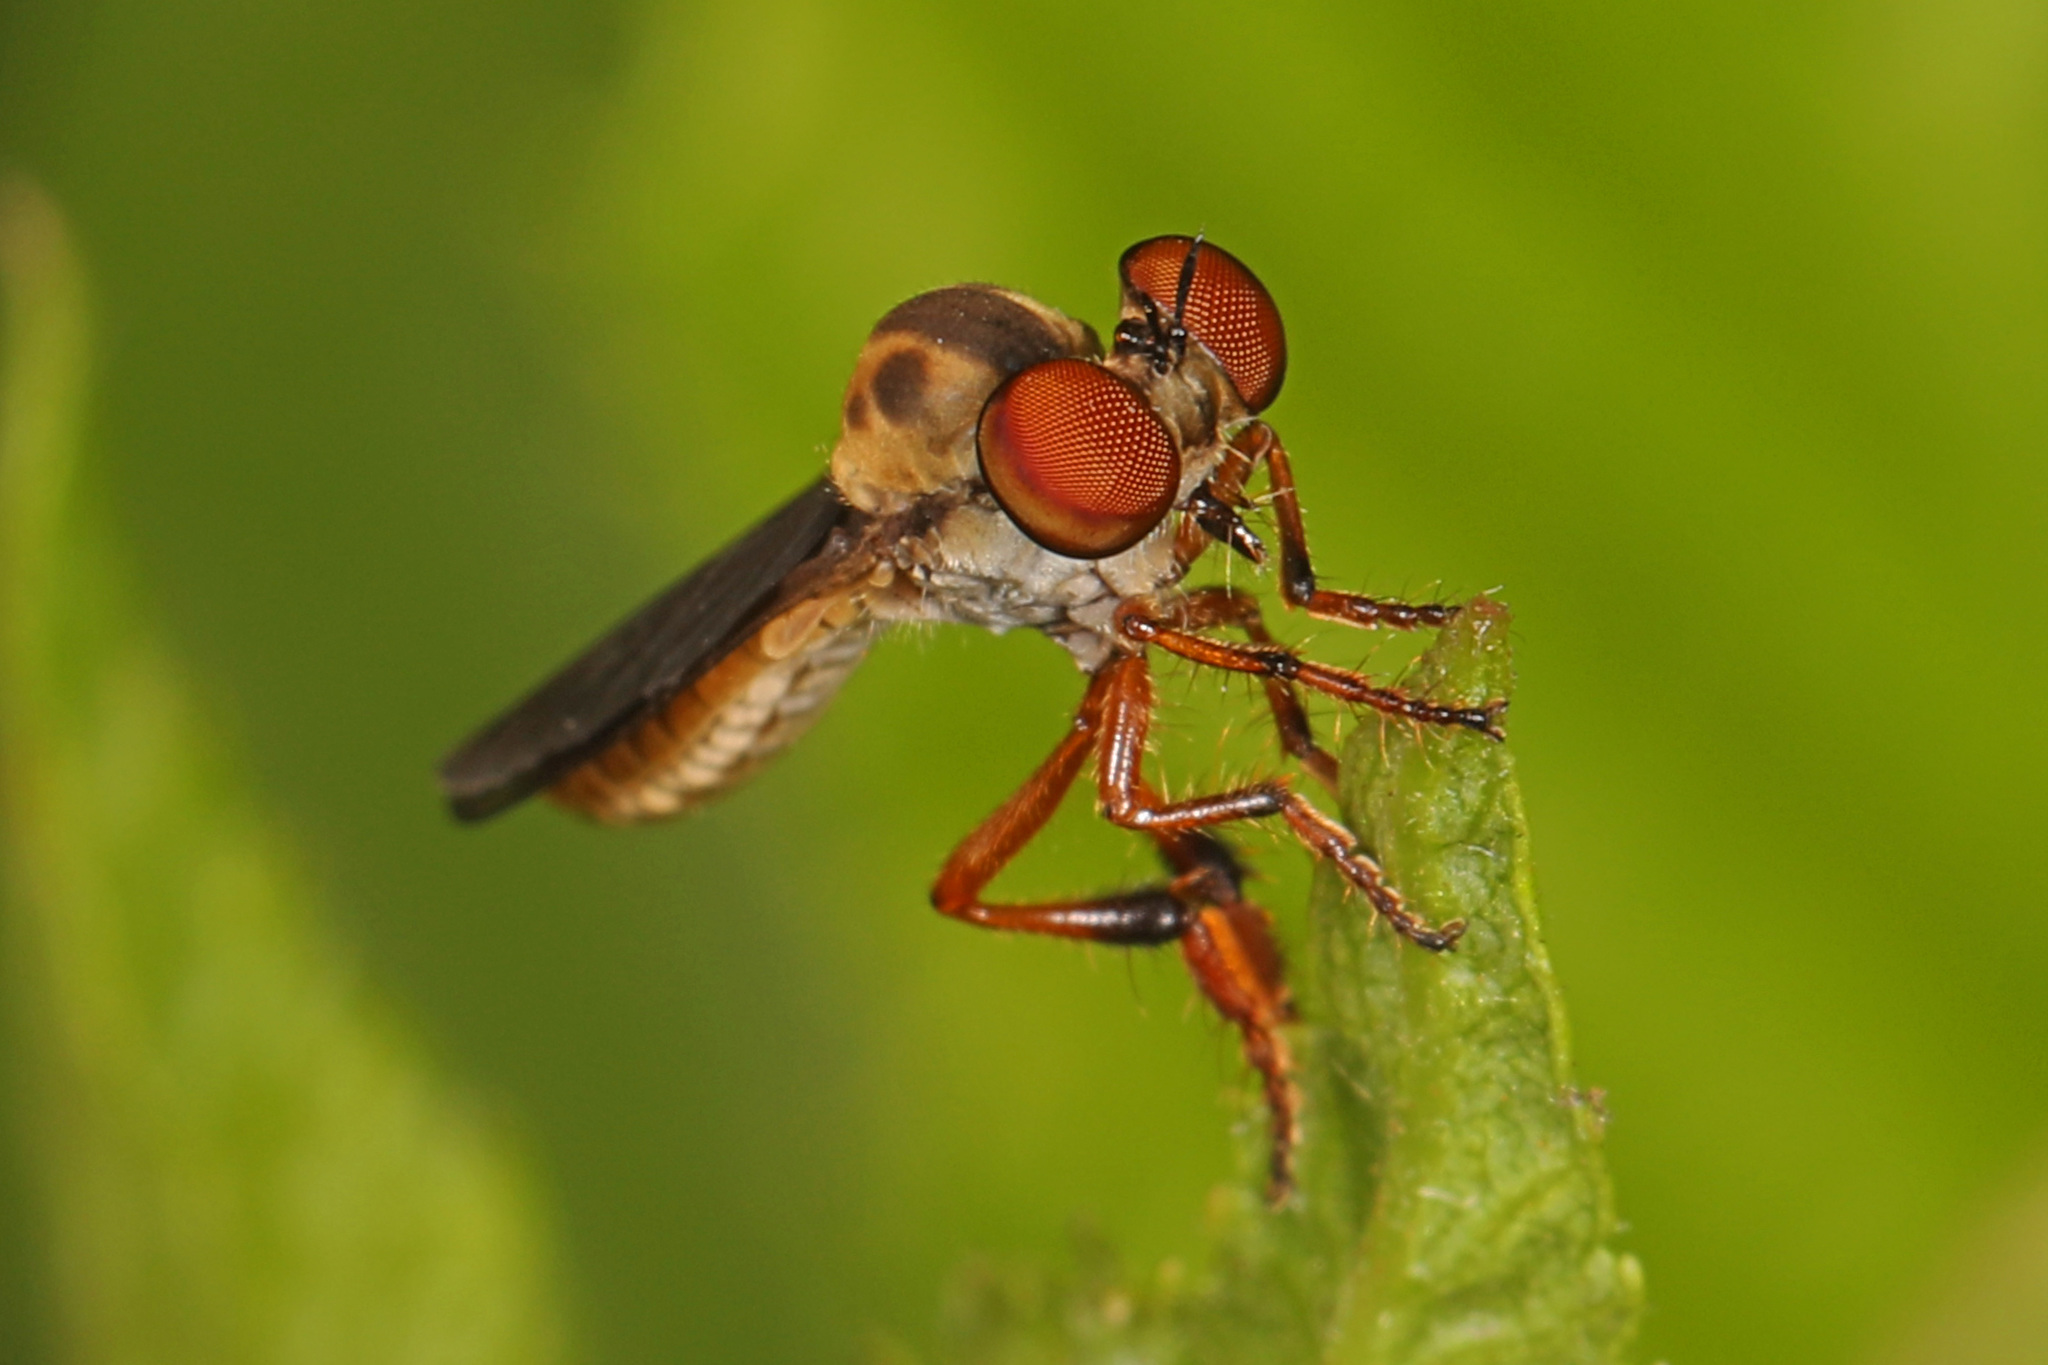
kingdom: Animalia
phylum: Arthropoda
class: Insecta
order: Diptera
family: Asilidae
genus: Holcocephala
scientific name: Holcocephala
